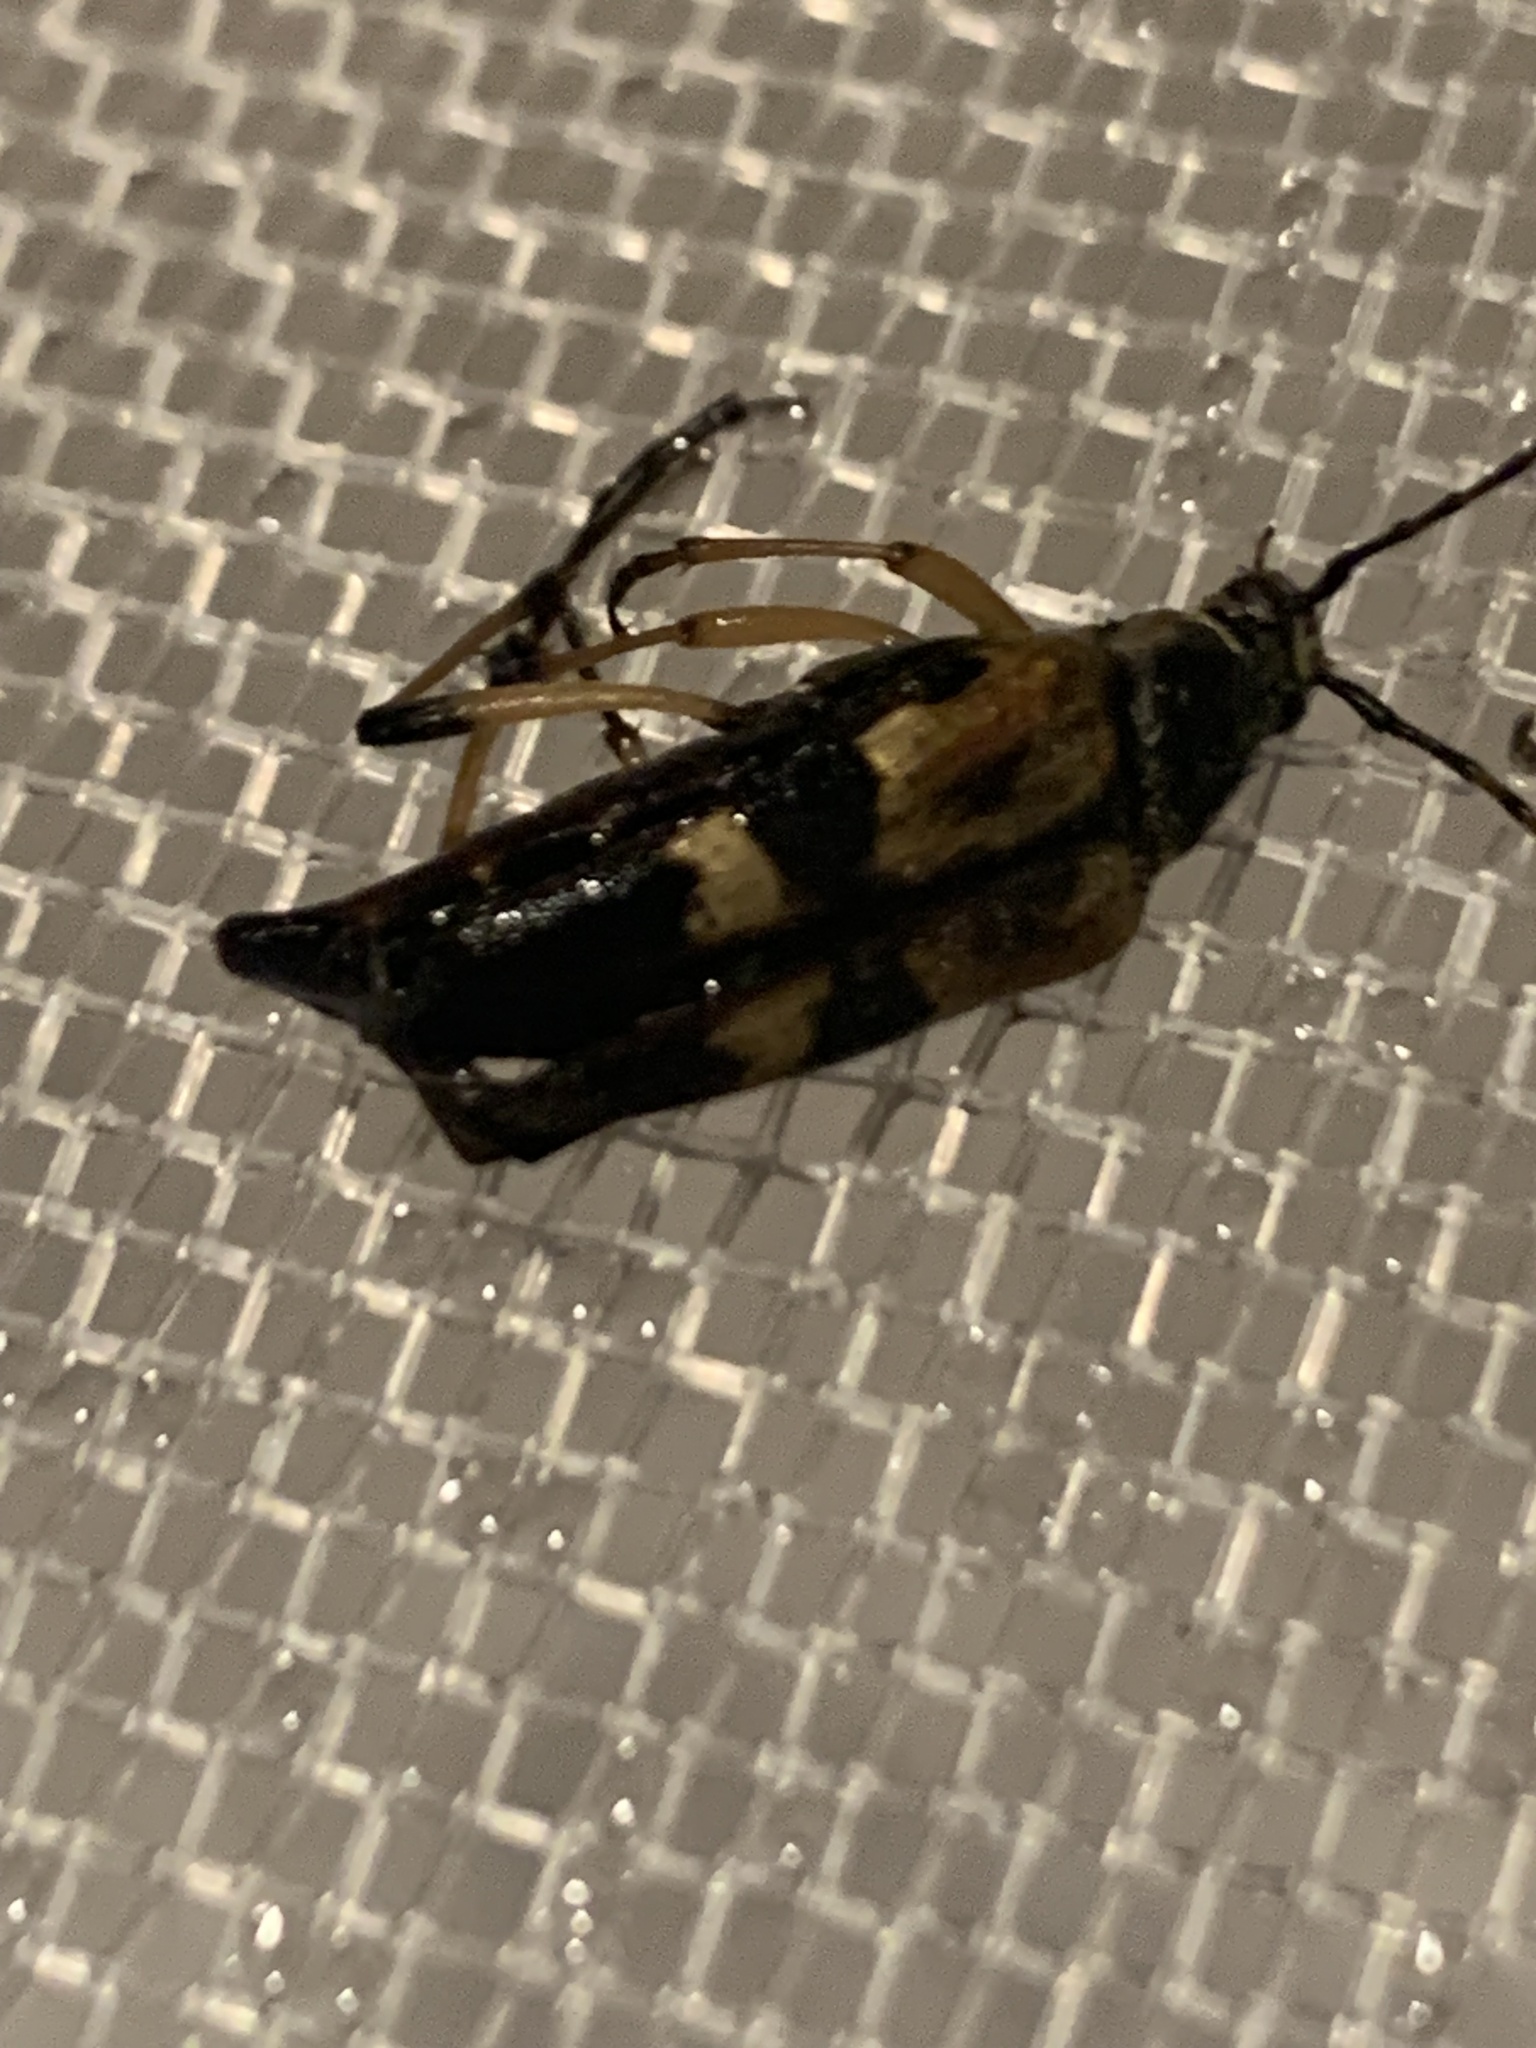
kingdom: Animalia
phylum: Arthropoda
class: Insecta
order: Coleoptera
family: Cerambycidae
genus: Etorofus
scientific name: Etorofus obliteratus
